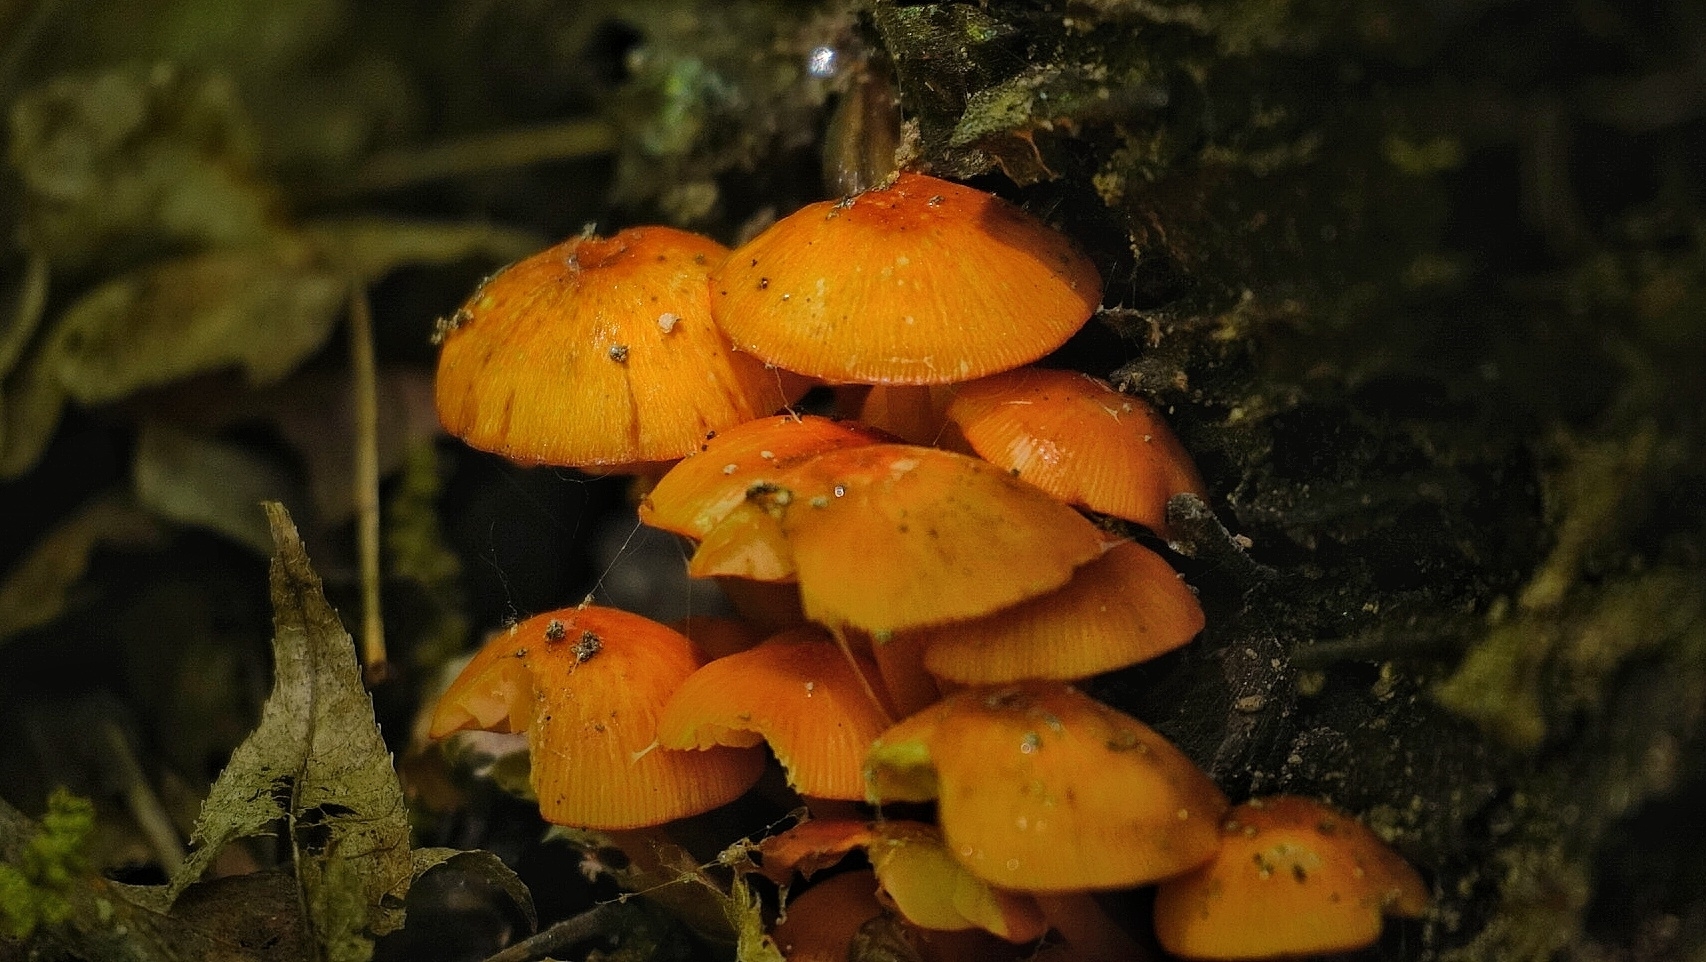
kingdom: Fungi
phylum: Basidiomycota
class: Agaricomycetes
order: Agaricales
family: Mycenaceae
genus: Mycena
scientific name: Mycena leaiana
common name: Orange mycena
